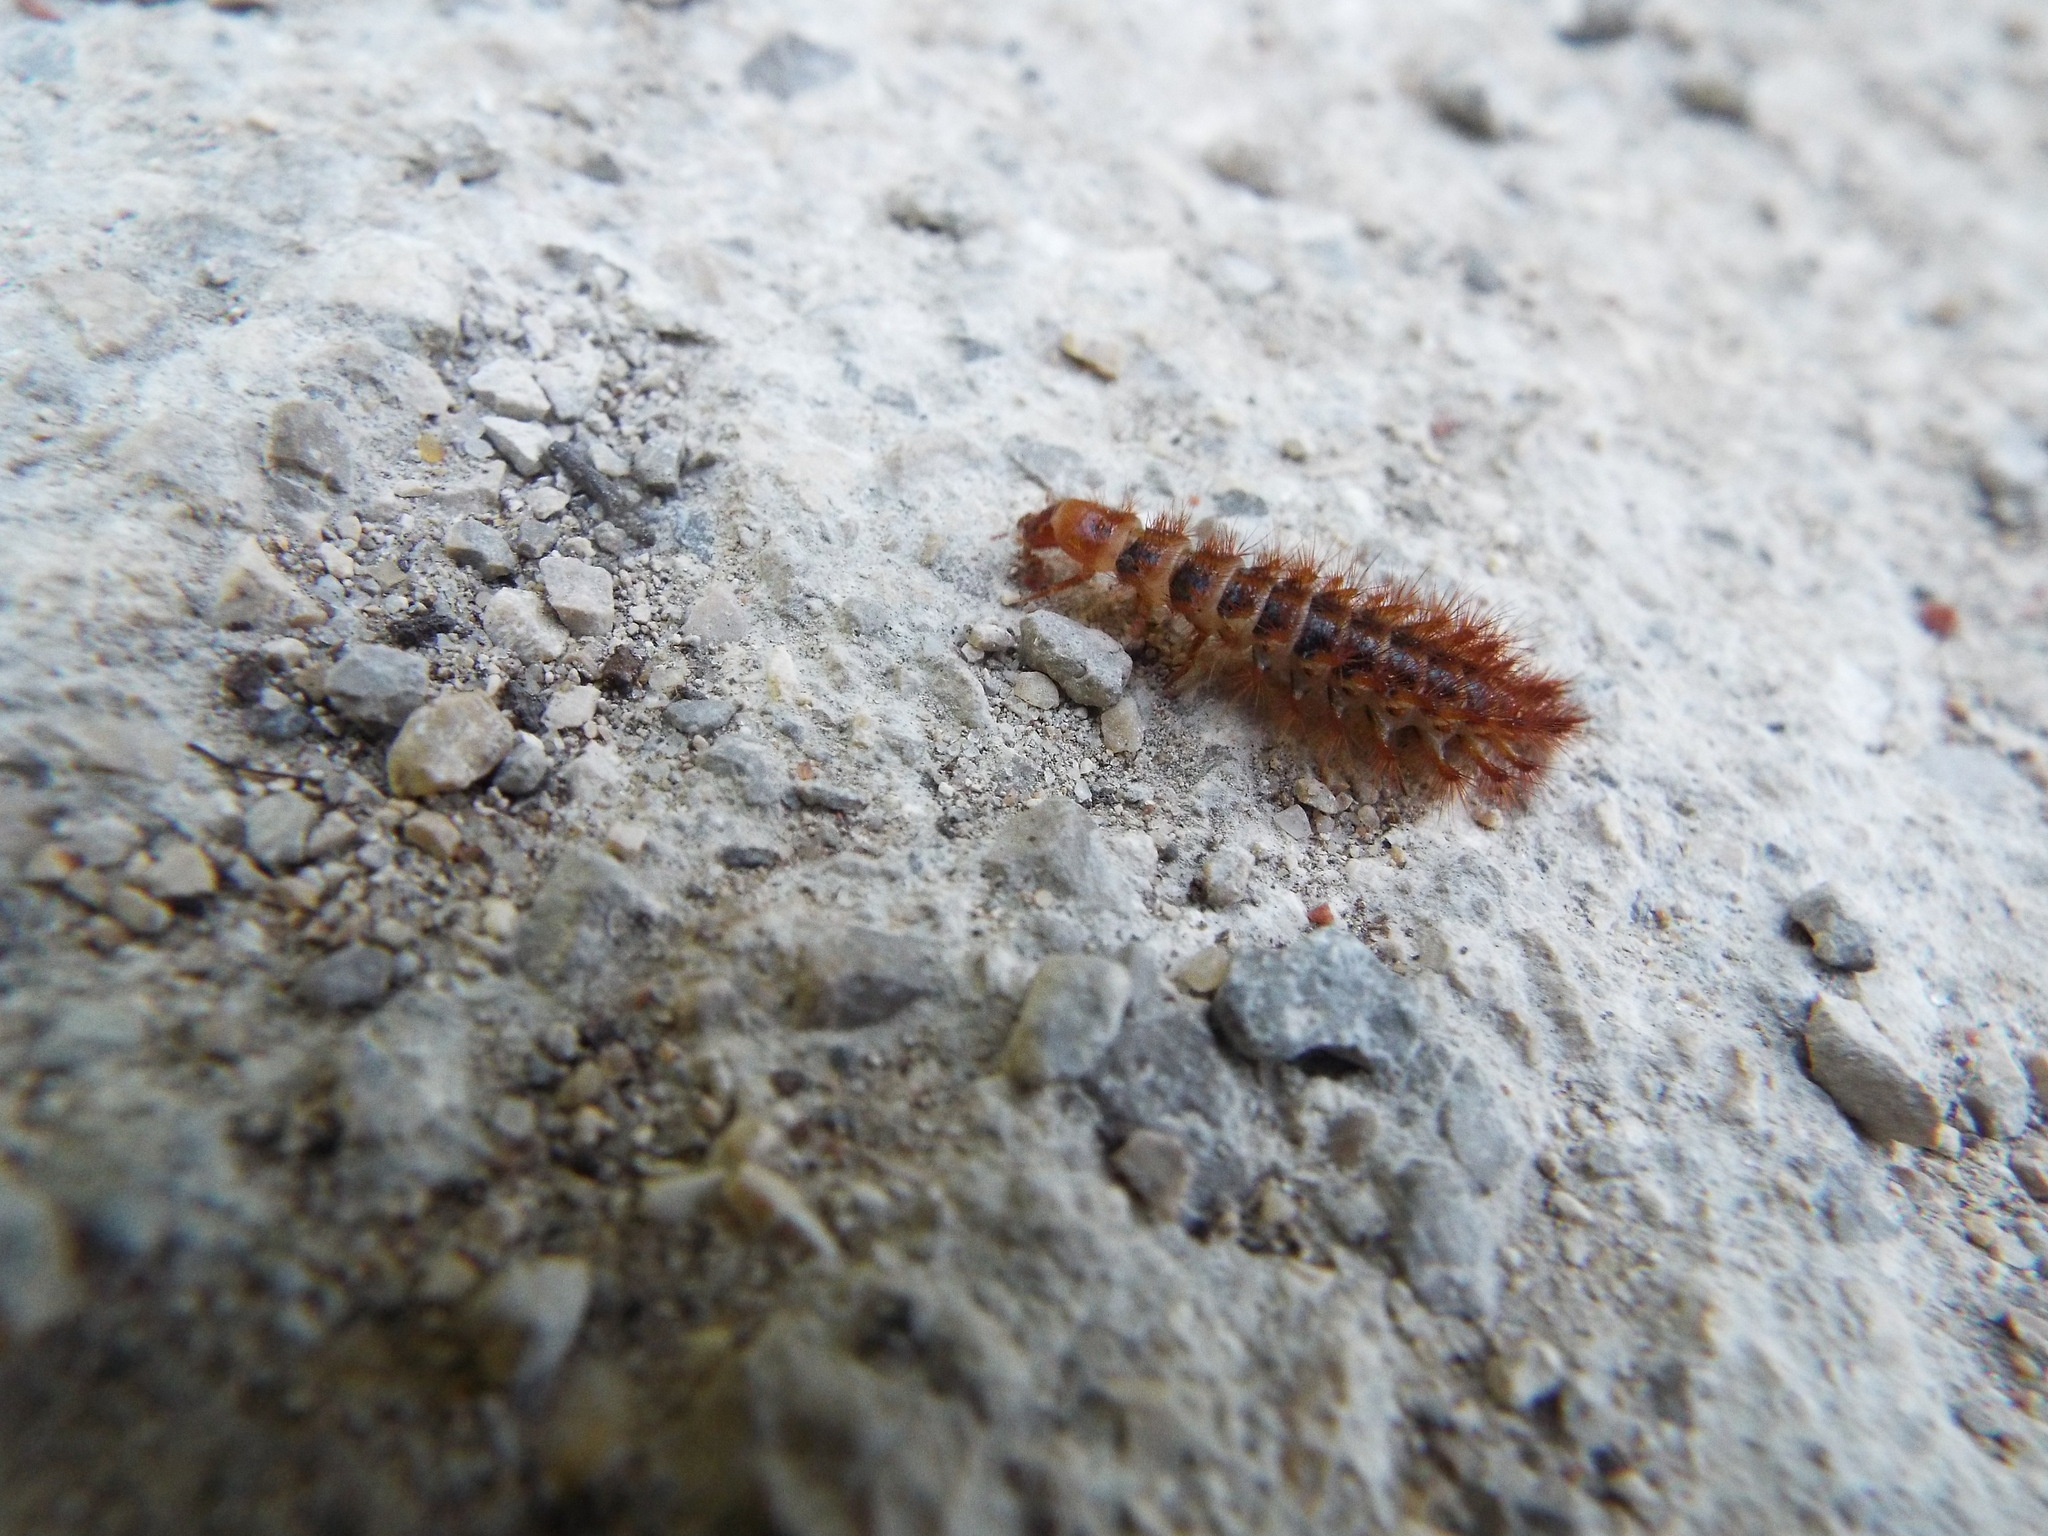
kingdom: Animalia
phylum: Arthropoda
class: Insecta
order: Coleoptera
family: Drilidae
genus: Drilus
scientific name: Drilus flavescens
